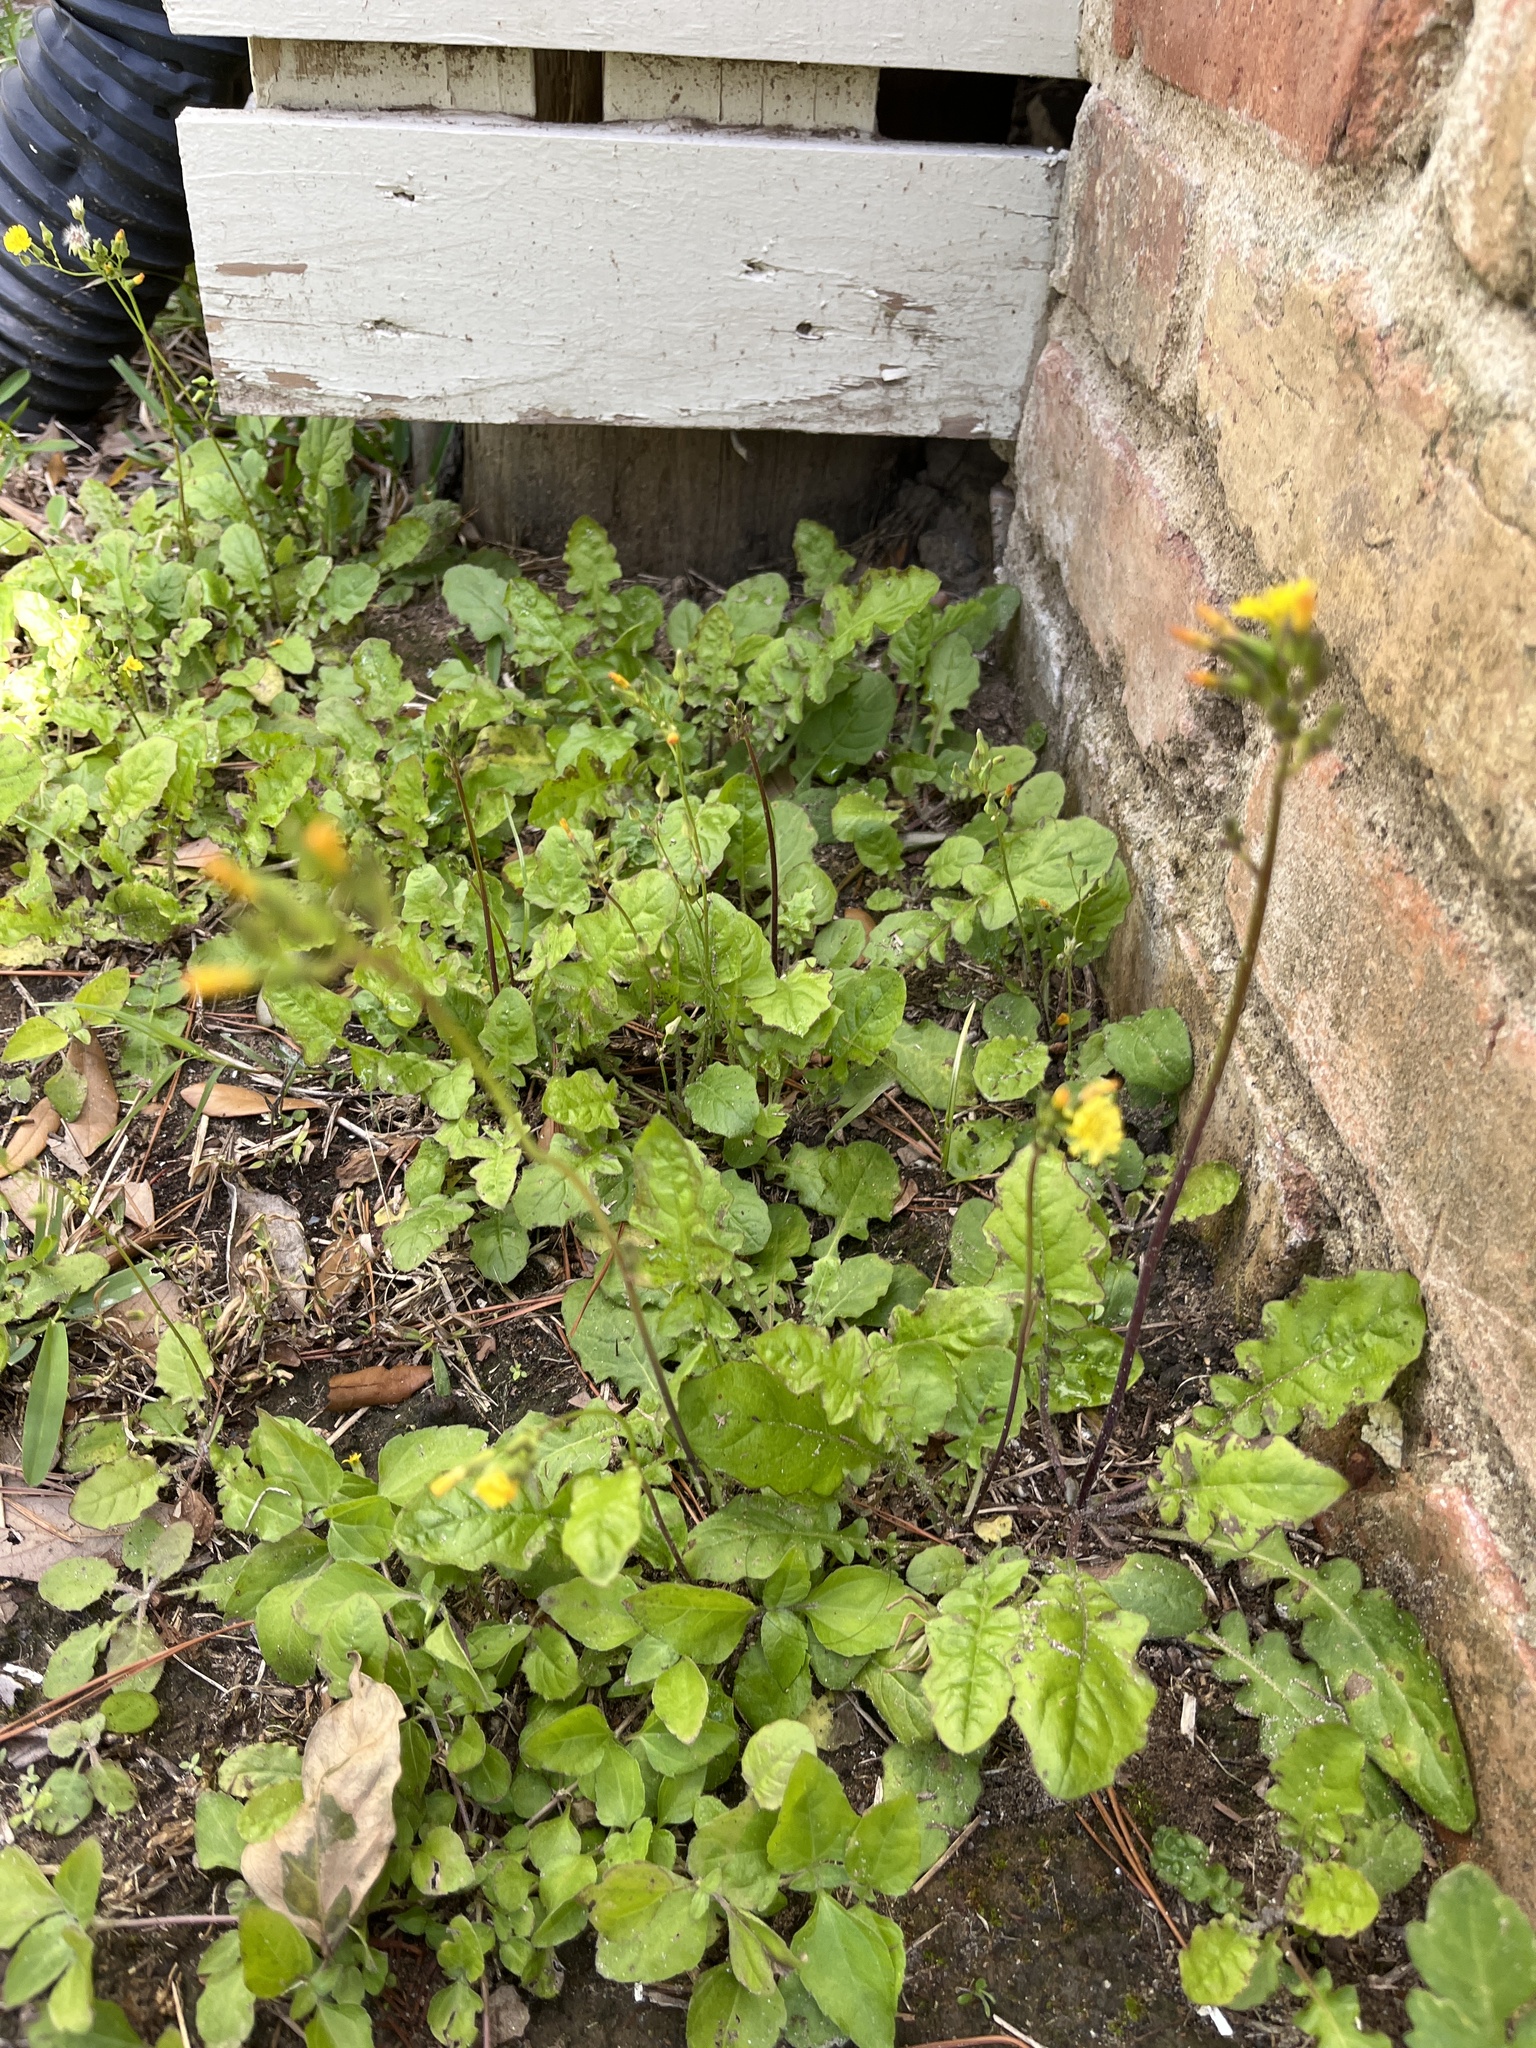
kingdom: Plantae
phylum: Tracheophyta
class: Magnoliopsida
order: Asterales
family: Asteraceae
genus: Youngia
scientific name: Youngia japonica
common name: Oriental false hawksbeard
